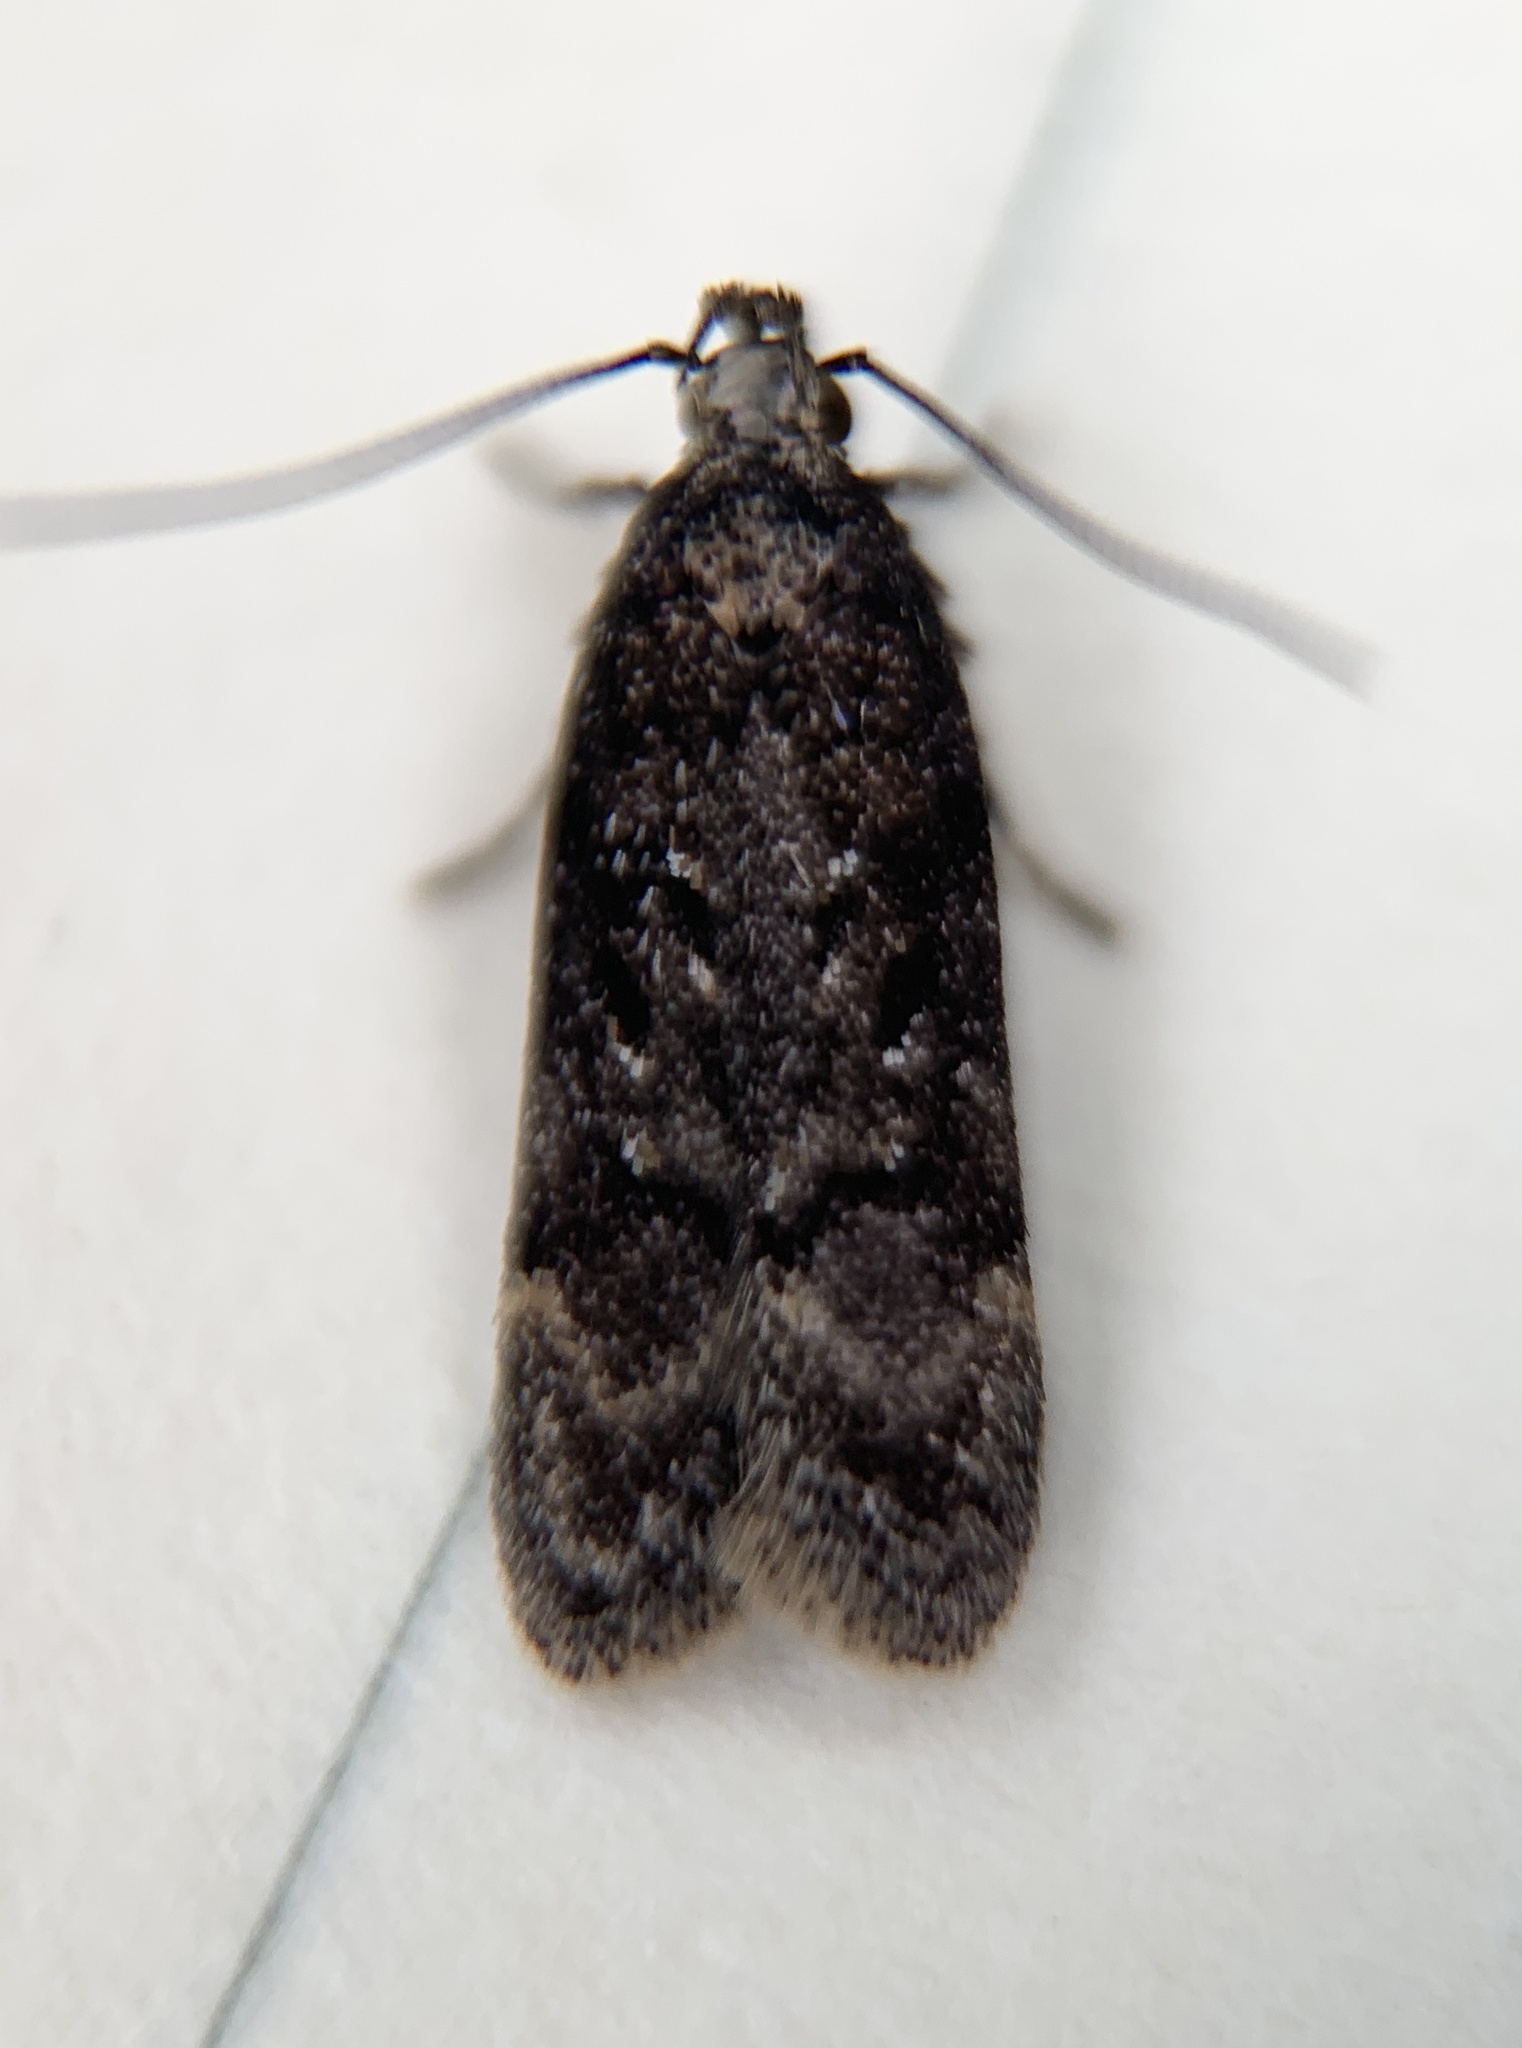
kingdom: Animalia
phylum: Arthropoda
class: Insecta
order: Lepidoptera
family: Gelechiidae
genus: Chionodes
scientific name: Chionodes thoraceochrella
